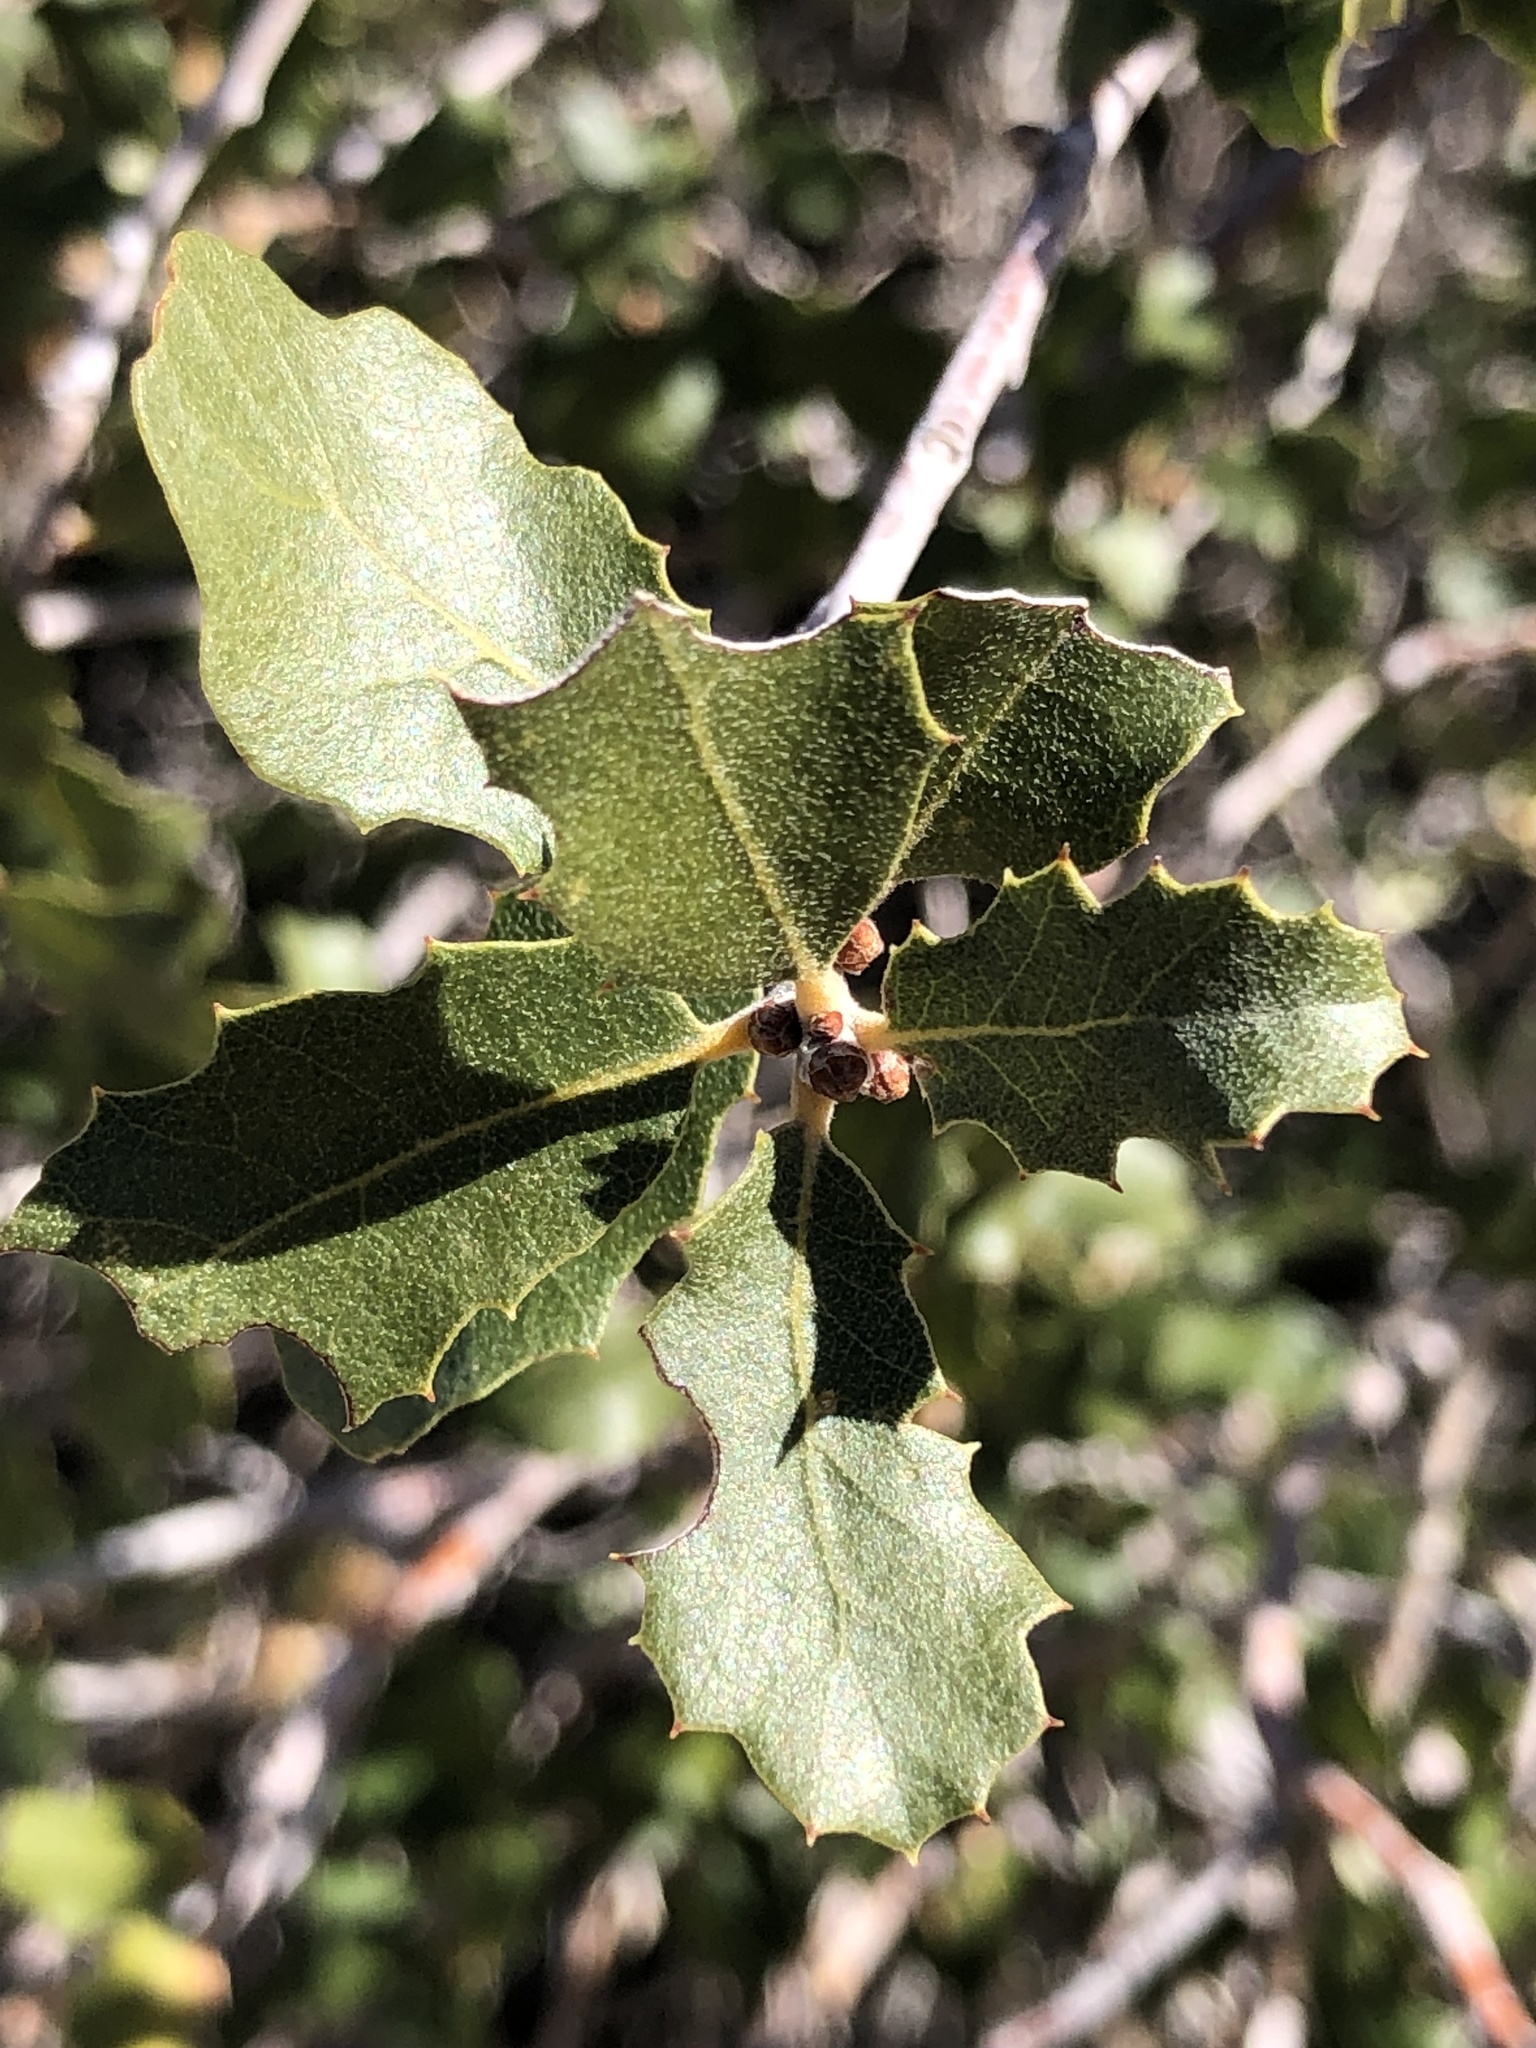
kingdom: Plantae
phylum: Tracheophyta
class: Magnoliopsida
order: Fagales
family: Fagaceae
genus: Quercus
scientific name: Quercus cornelius-mulleri
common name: Muller oak
